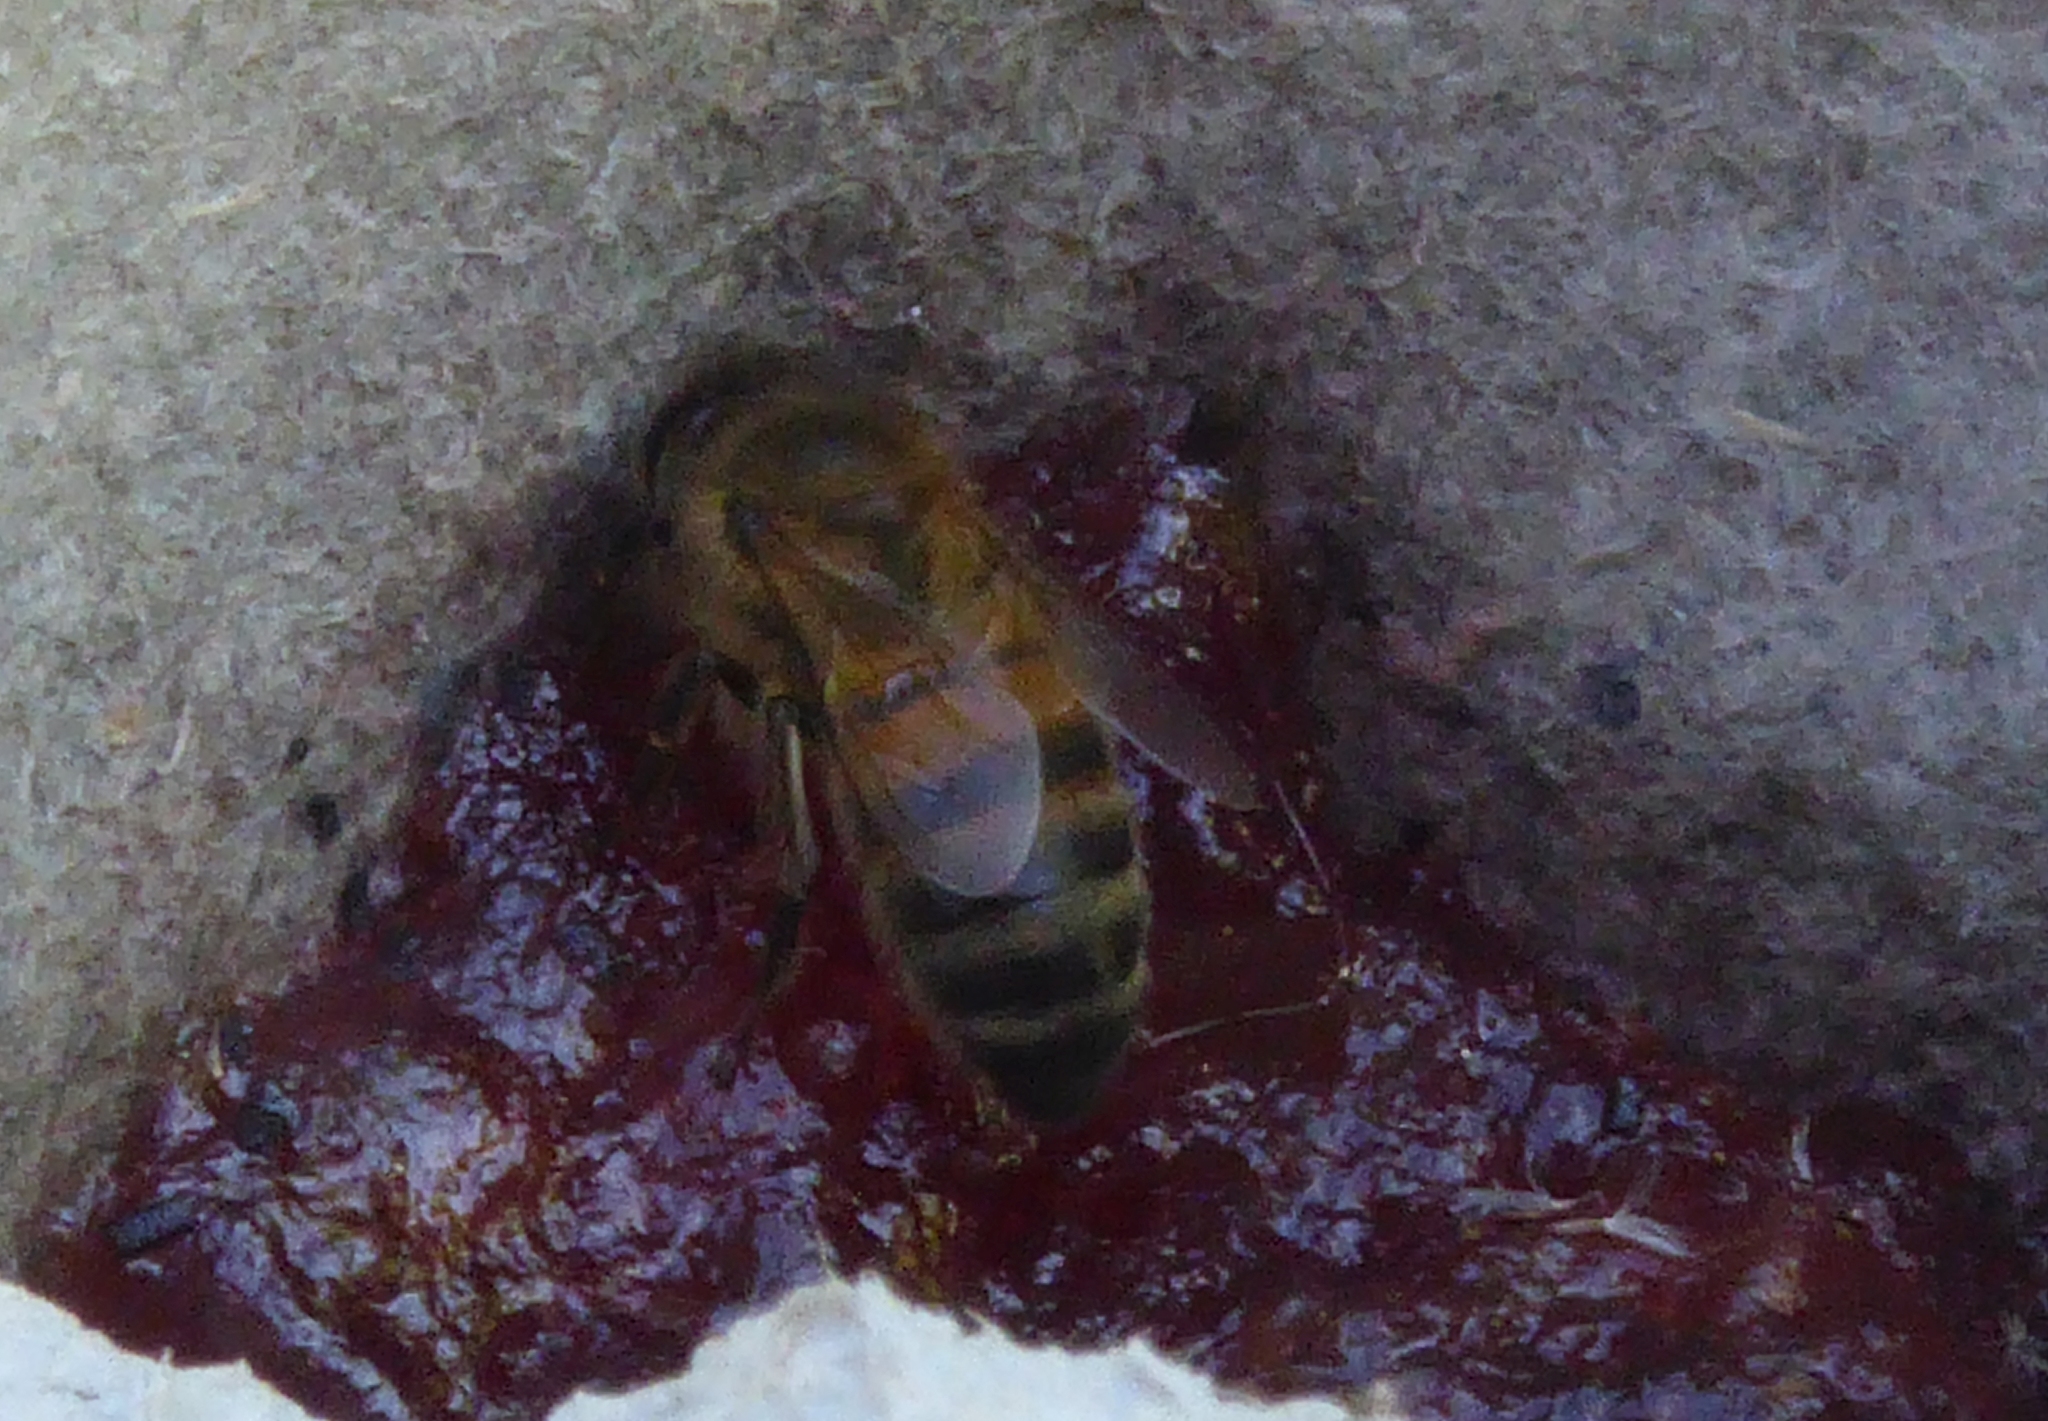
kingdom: Animalia
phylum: Arthropoda
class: Insecta
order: Hymenoptera
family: Apidae
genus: Apis
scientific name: Apis mellifera
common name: Honey bee
